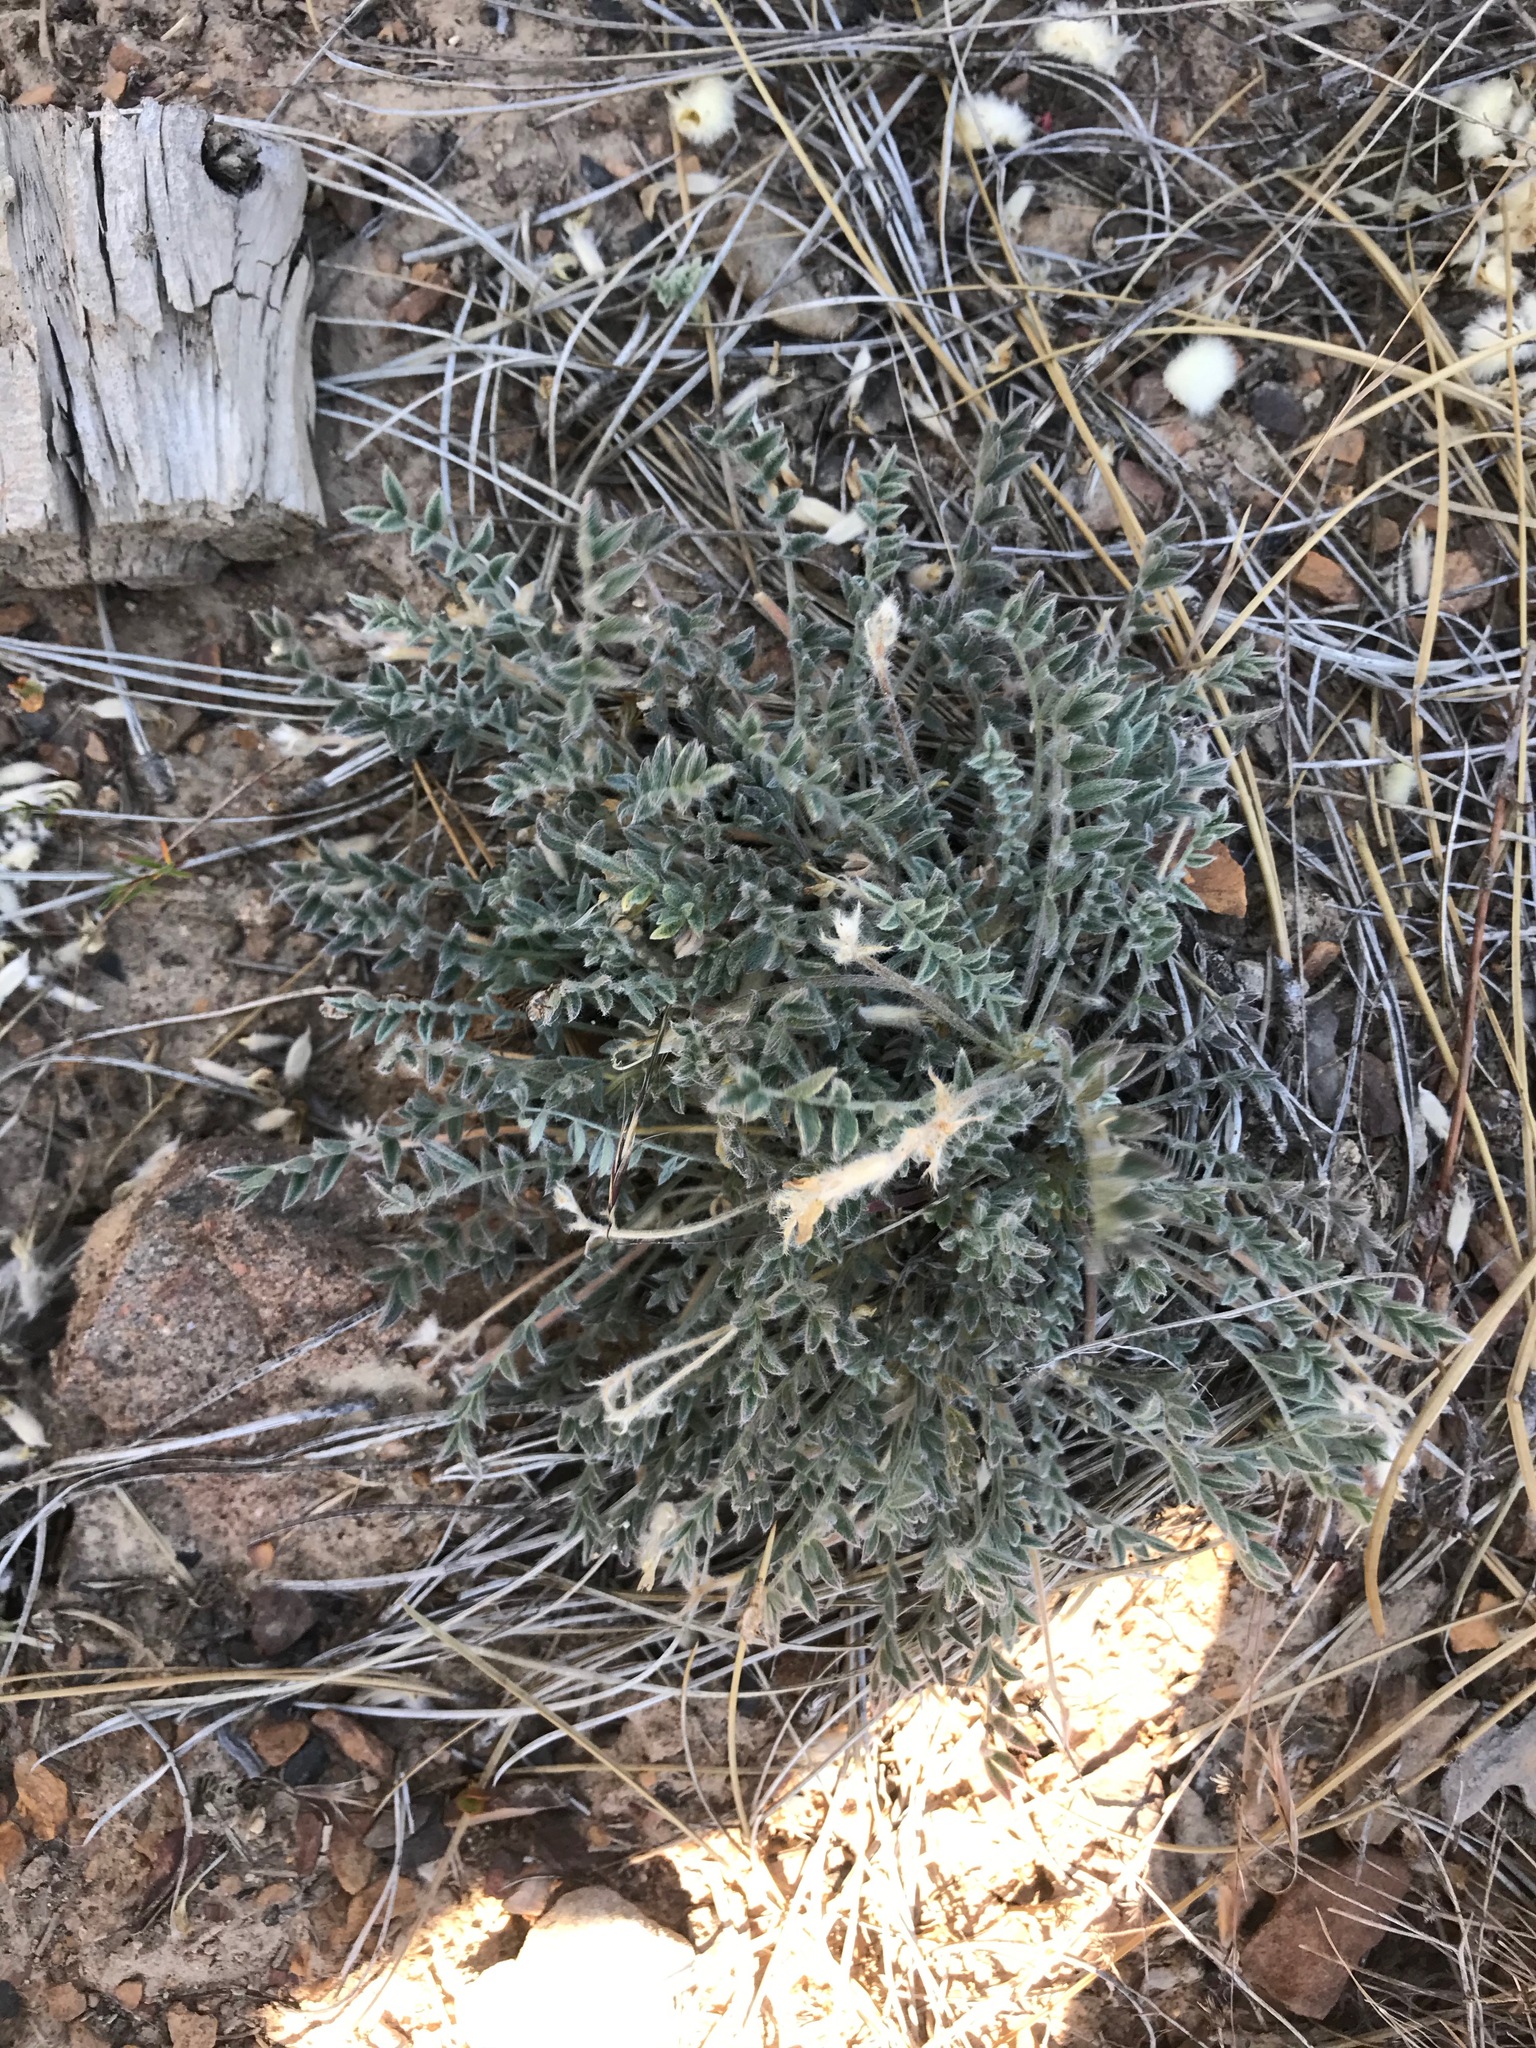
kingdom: Plantae
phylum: Tracheophyta
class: Magnoliopsida
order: Fabales
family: Fabaceae
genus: Astragalus
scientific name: Astragalus purshii
